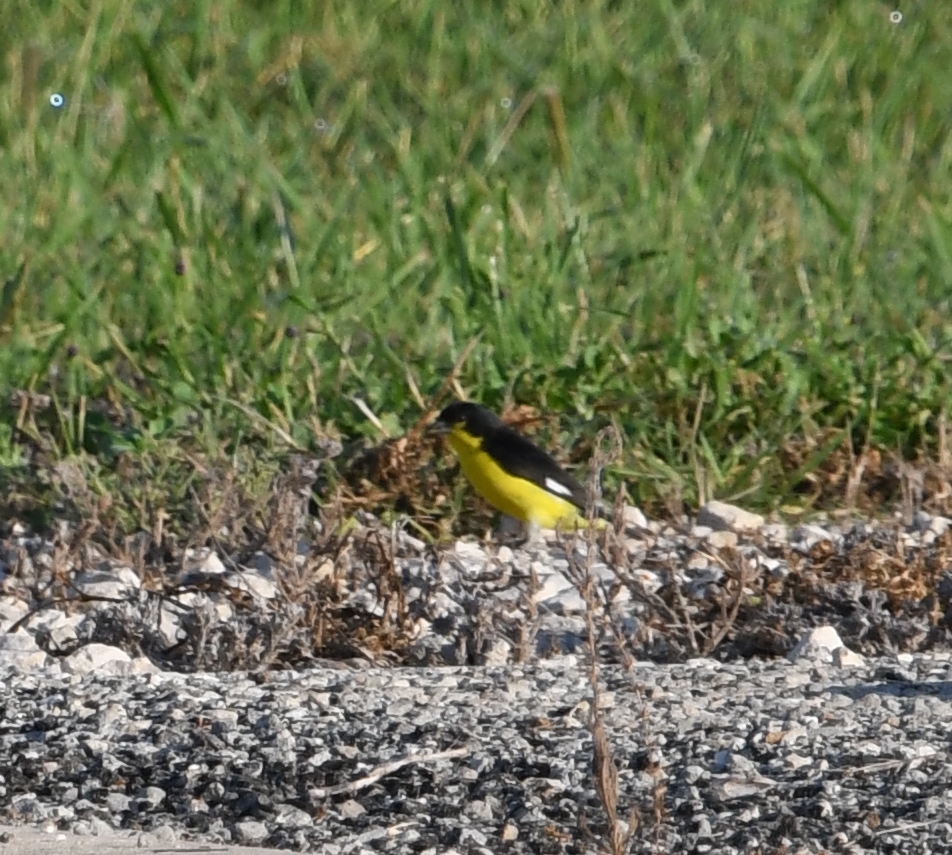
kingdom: Animalia
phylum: Chordata
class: Aves
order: Passeriformes
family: Fringillidae
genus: Spinus
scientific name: Spinus psaltria
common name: Lesser goldfinch
